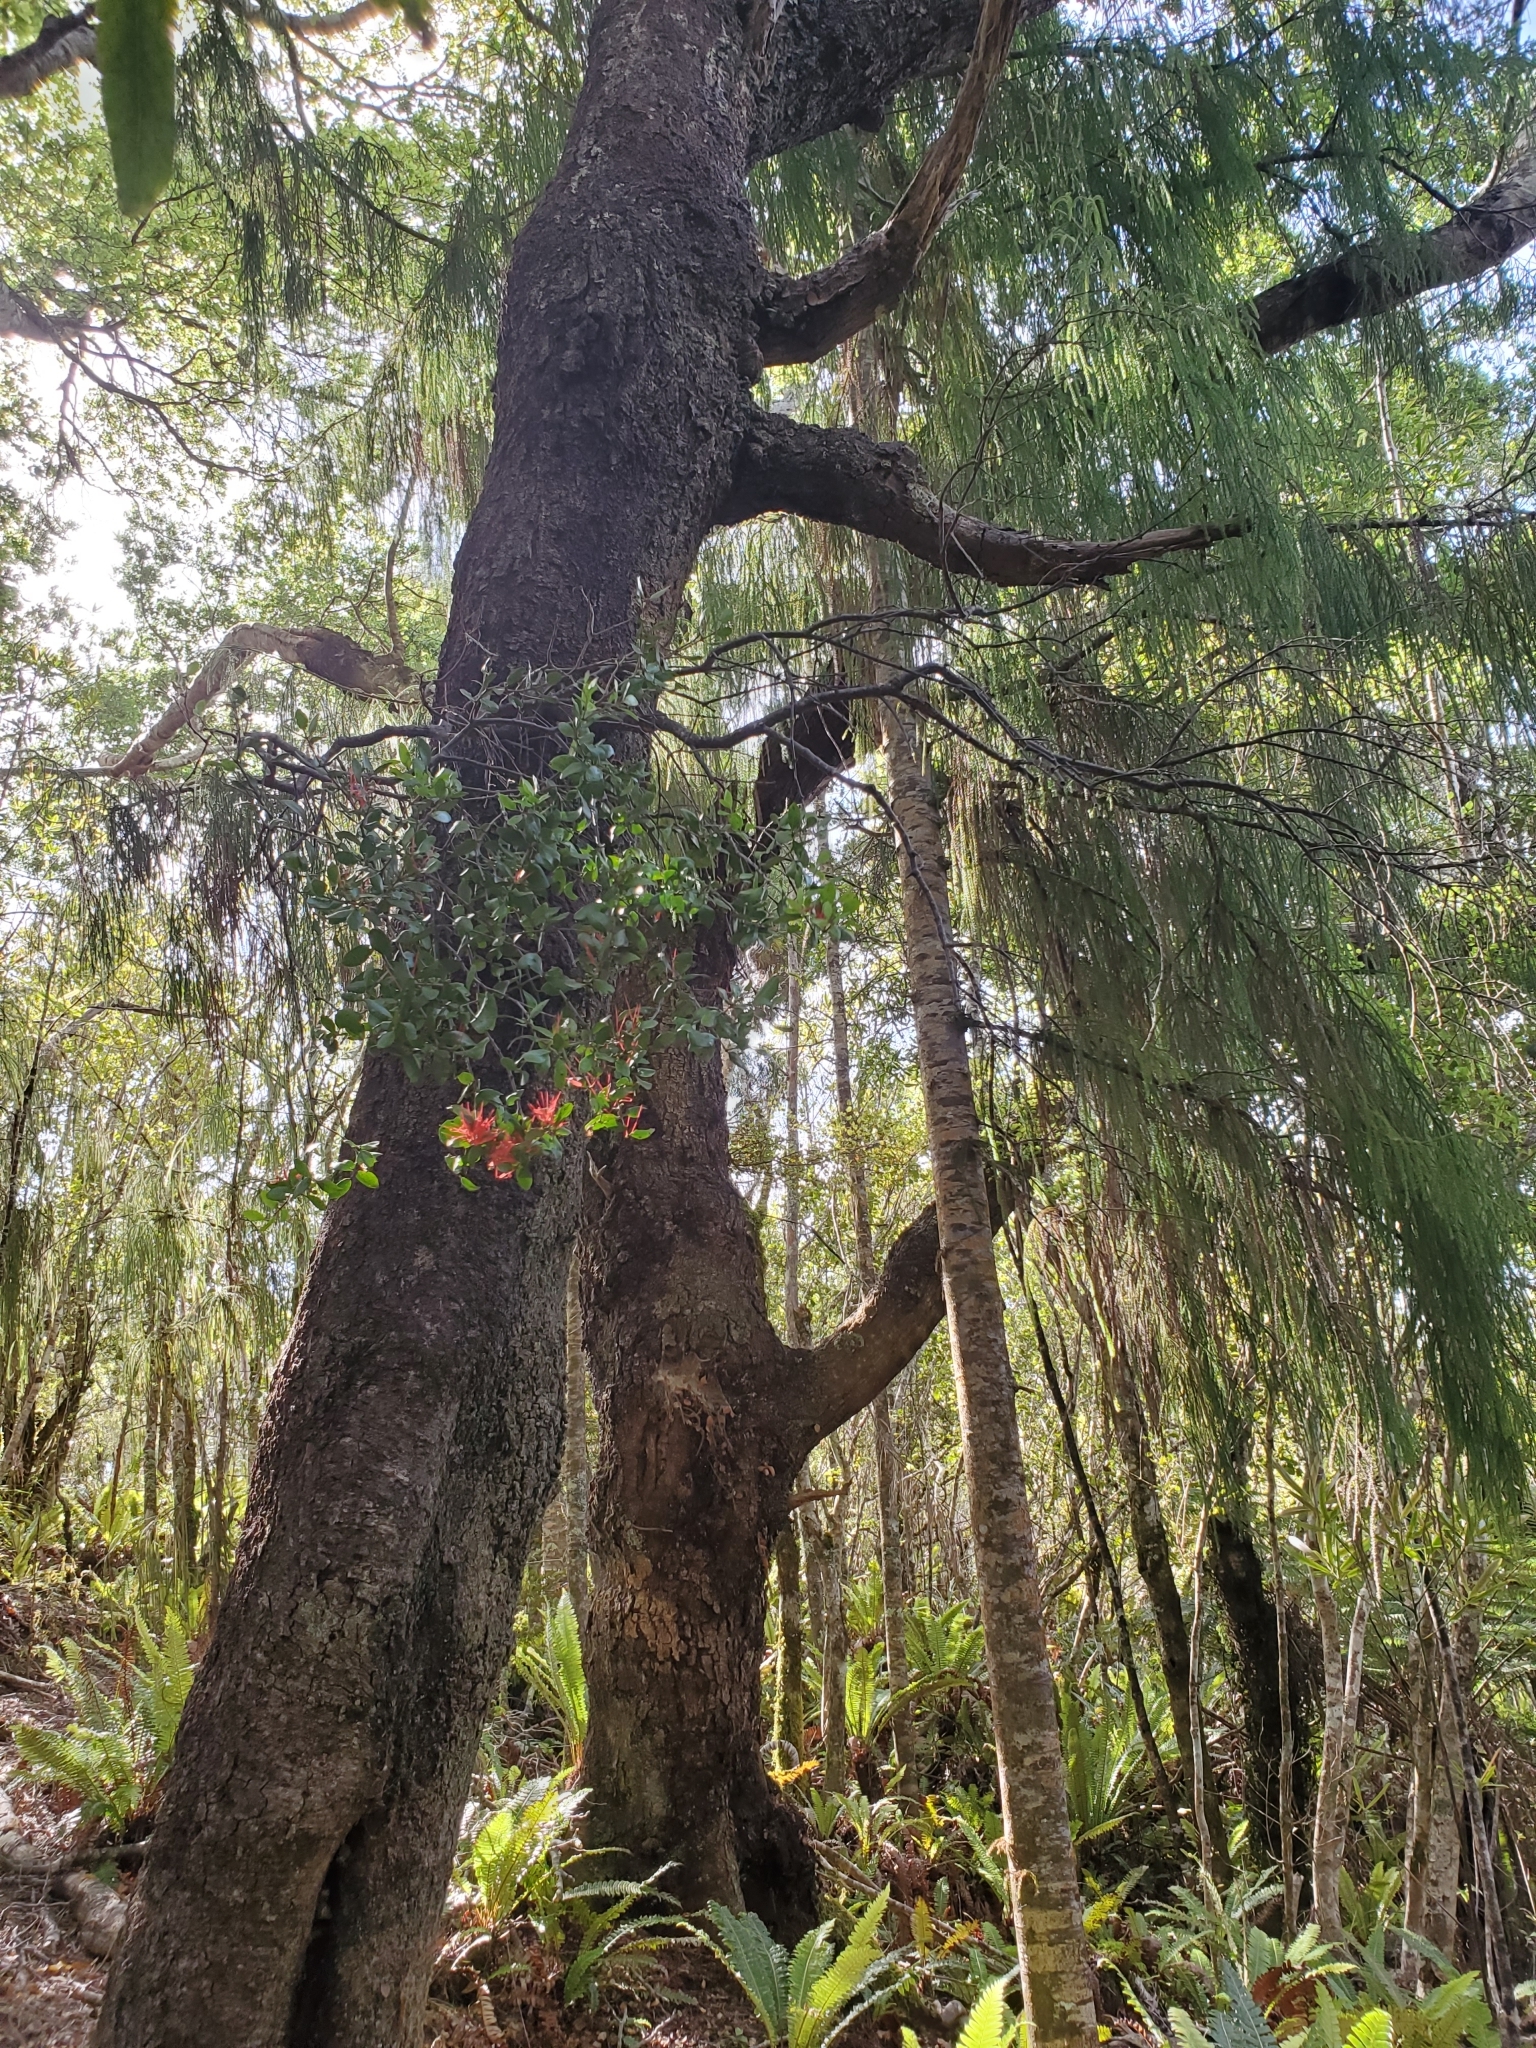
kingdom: Plantae
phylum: Tracheophyta
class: Magnoliopsida
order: Santalales
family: Loranthaceae
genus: Peraxilla
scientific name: Peraxilla tetrapetala
